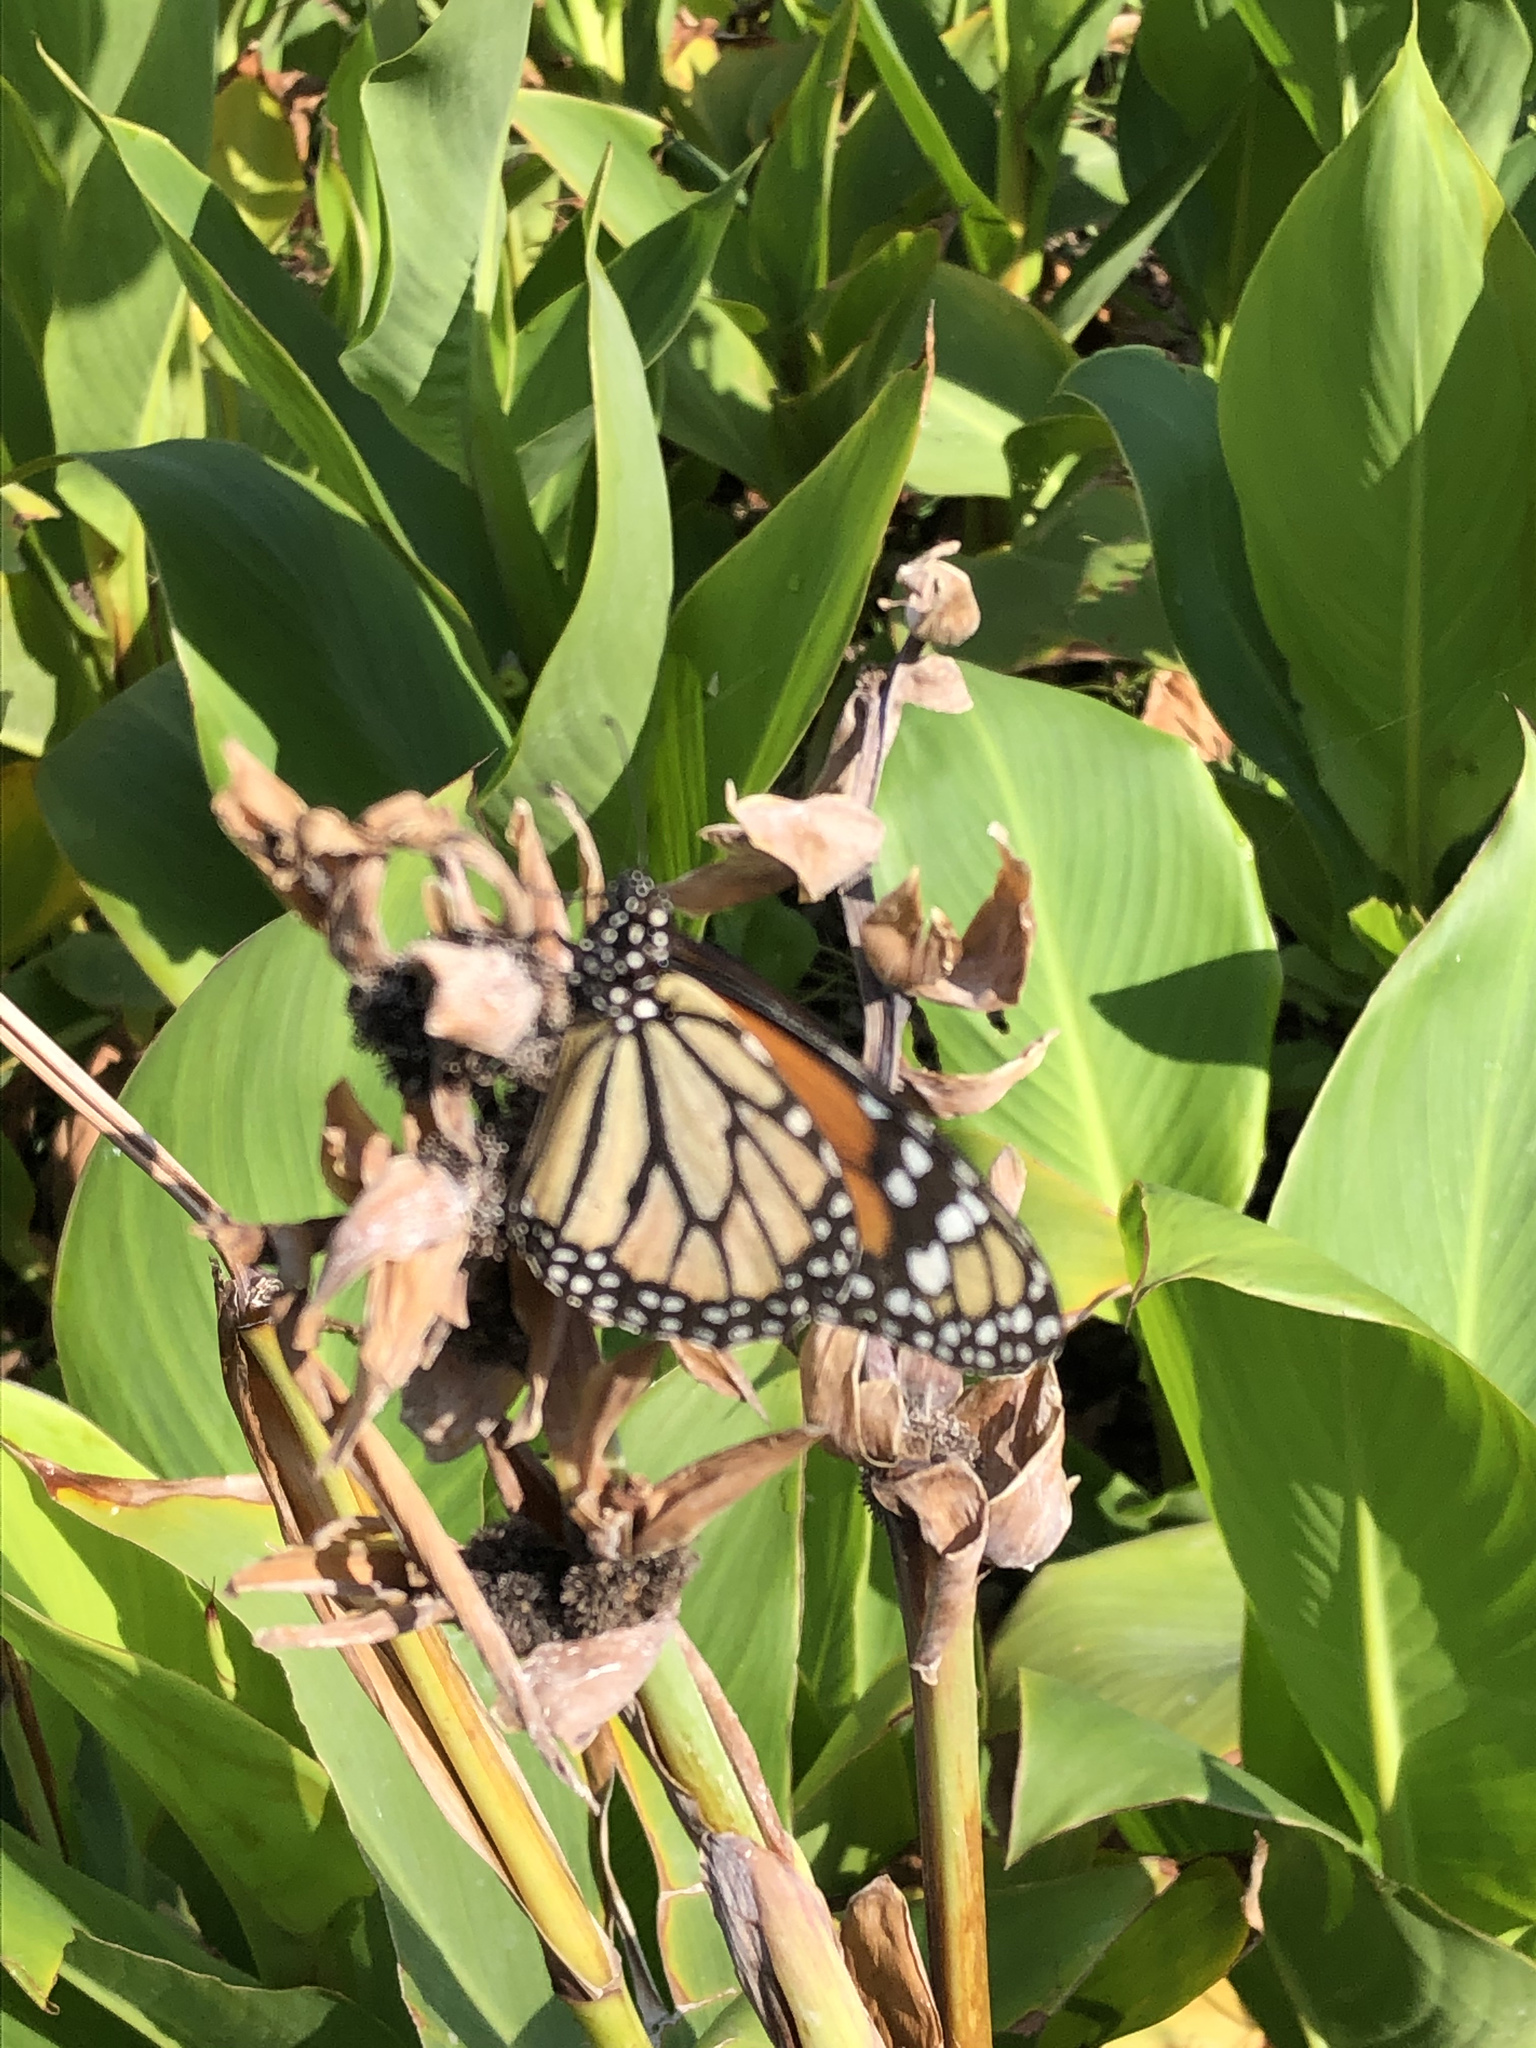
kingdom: Animalia
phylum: Arthropoda
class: Insecta
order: Lepidoptera
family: Nymphalidae
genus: Danaus
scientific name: Danaus plexippus
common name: Monarch
